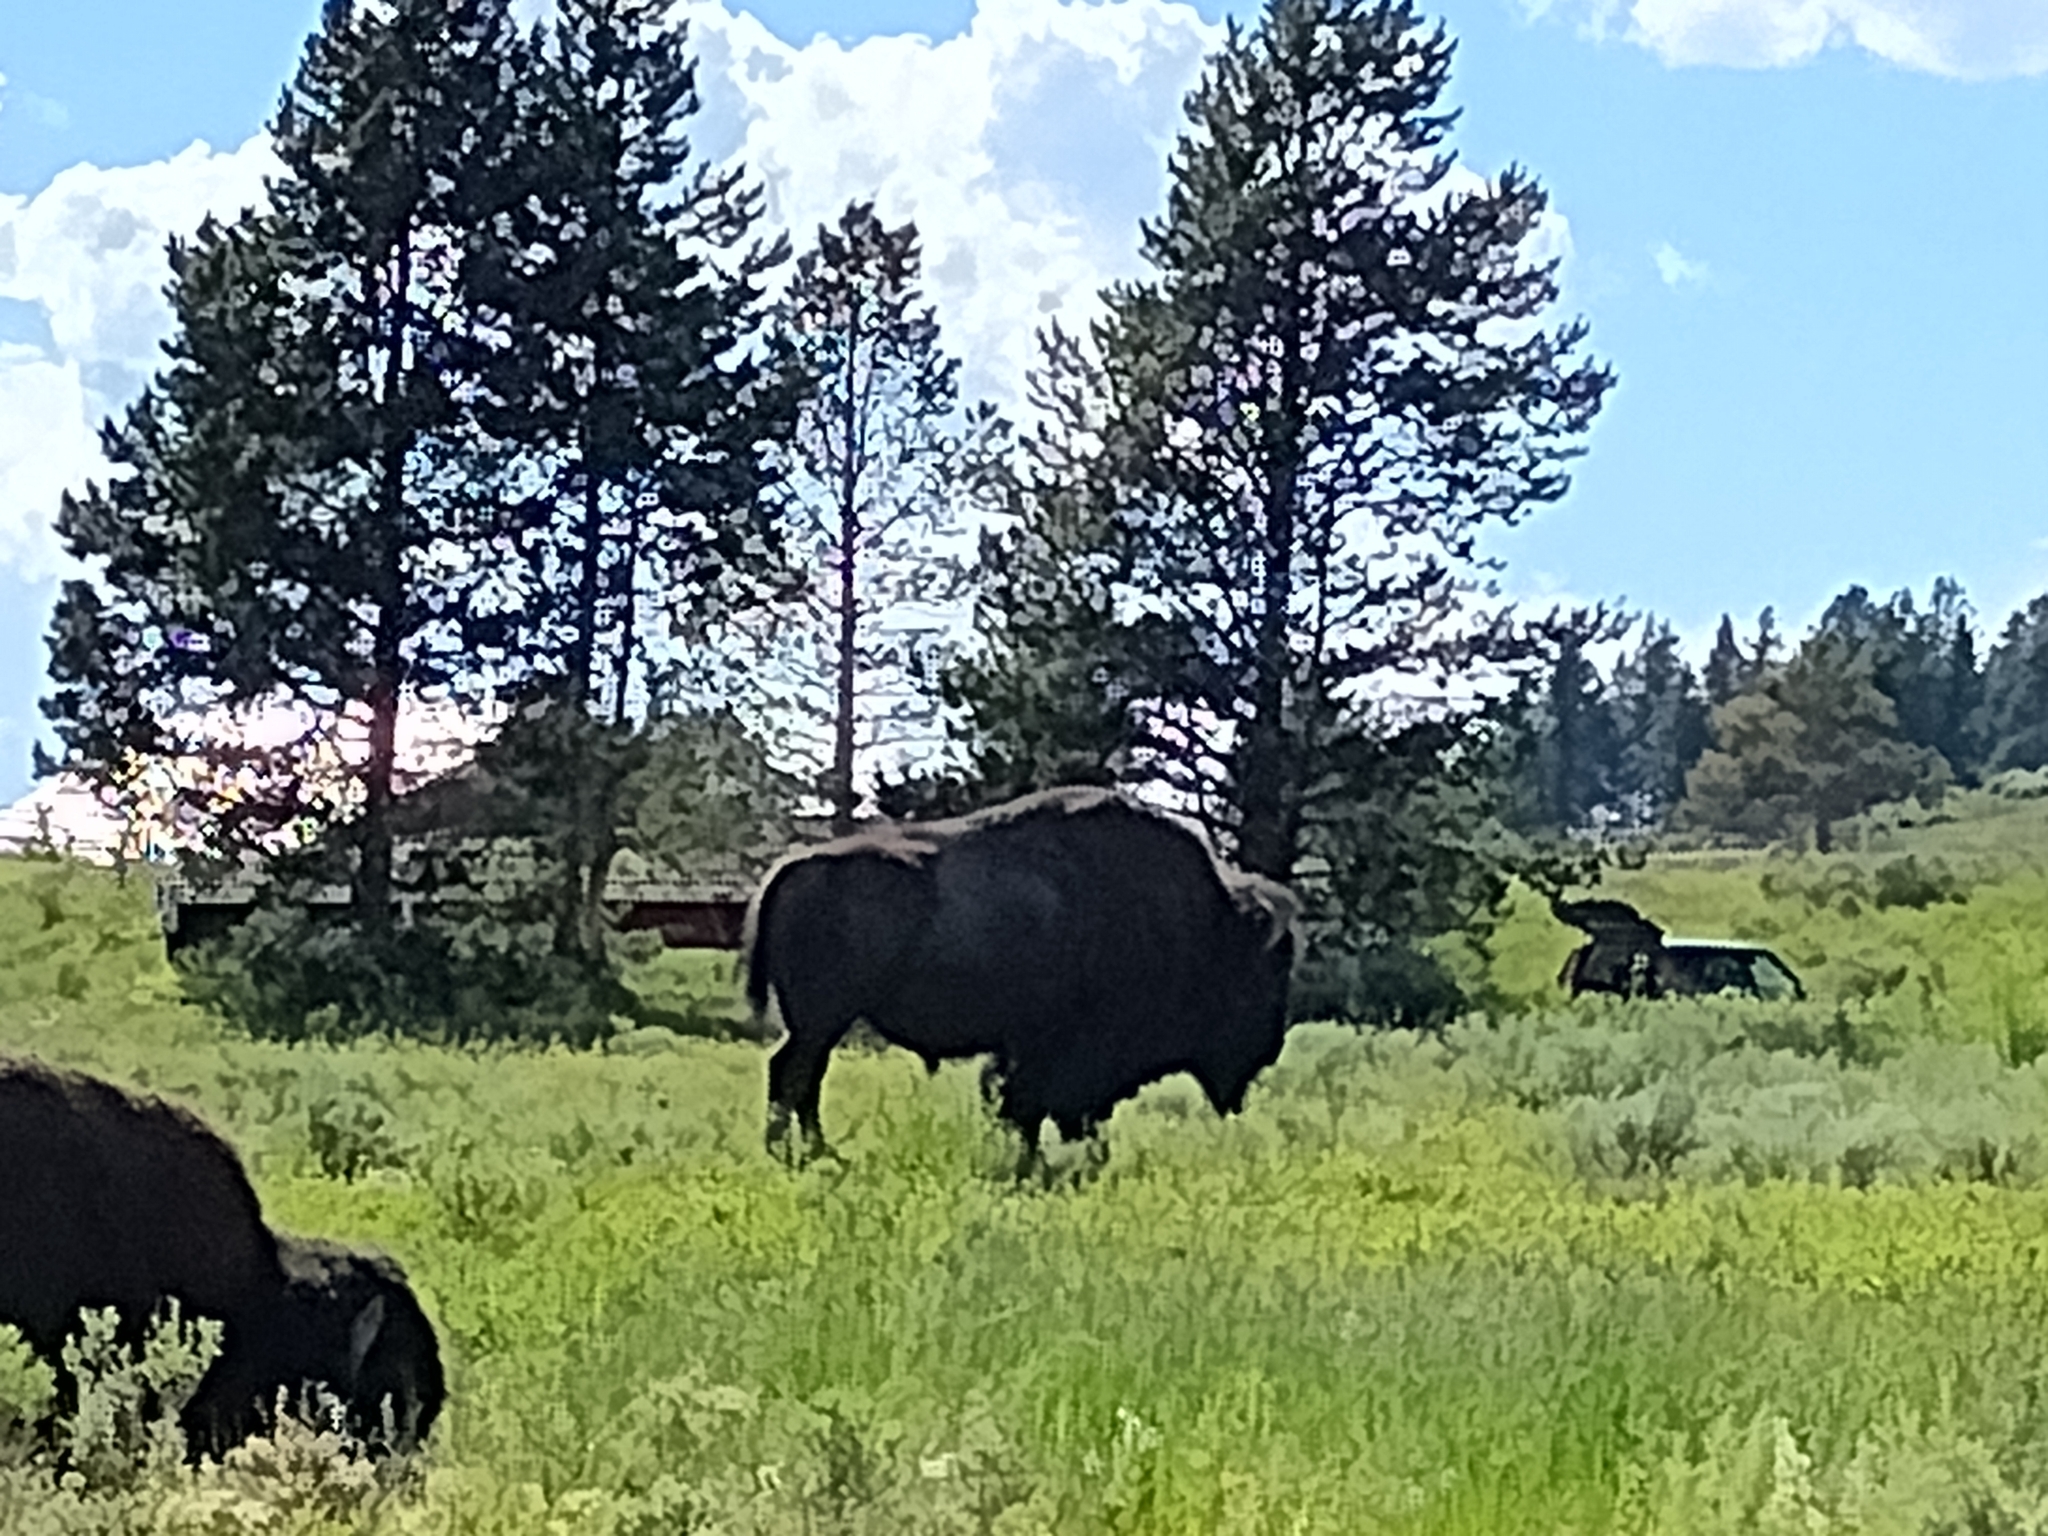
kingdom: Animalia
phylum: Chordata
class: Mammalia
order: Artiodactyla
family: Bovidae
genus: Bison
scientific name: Bison bison
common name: American bison
